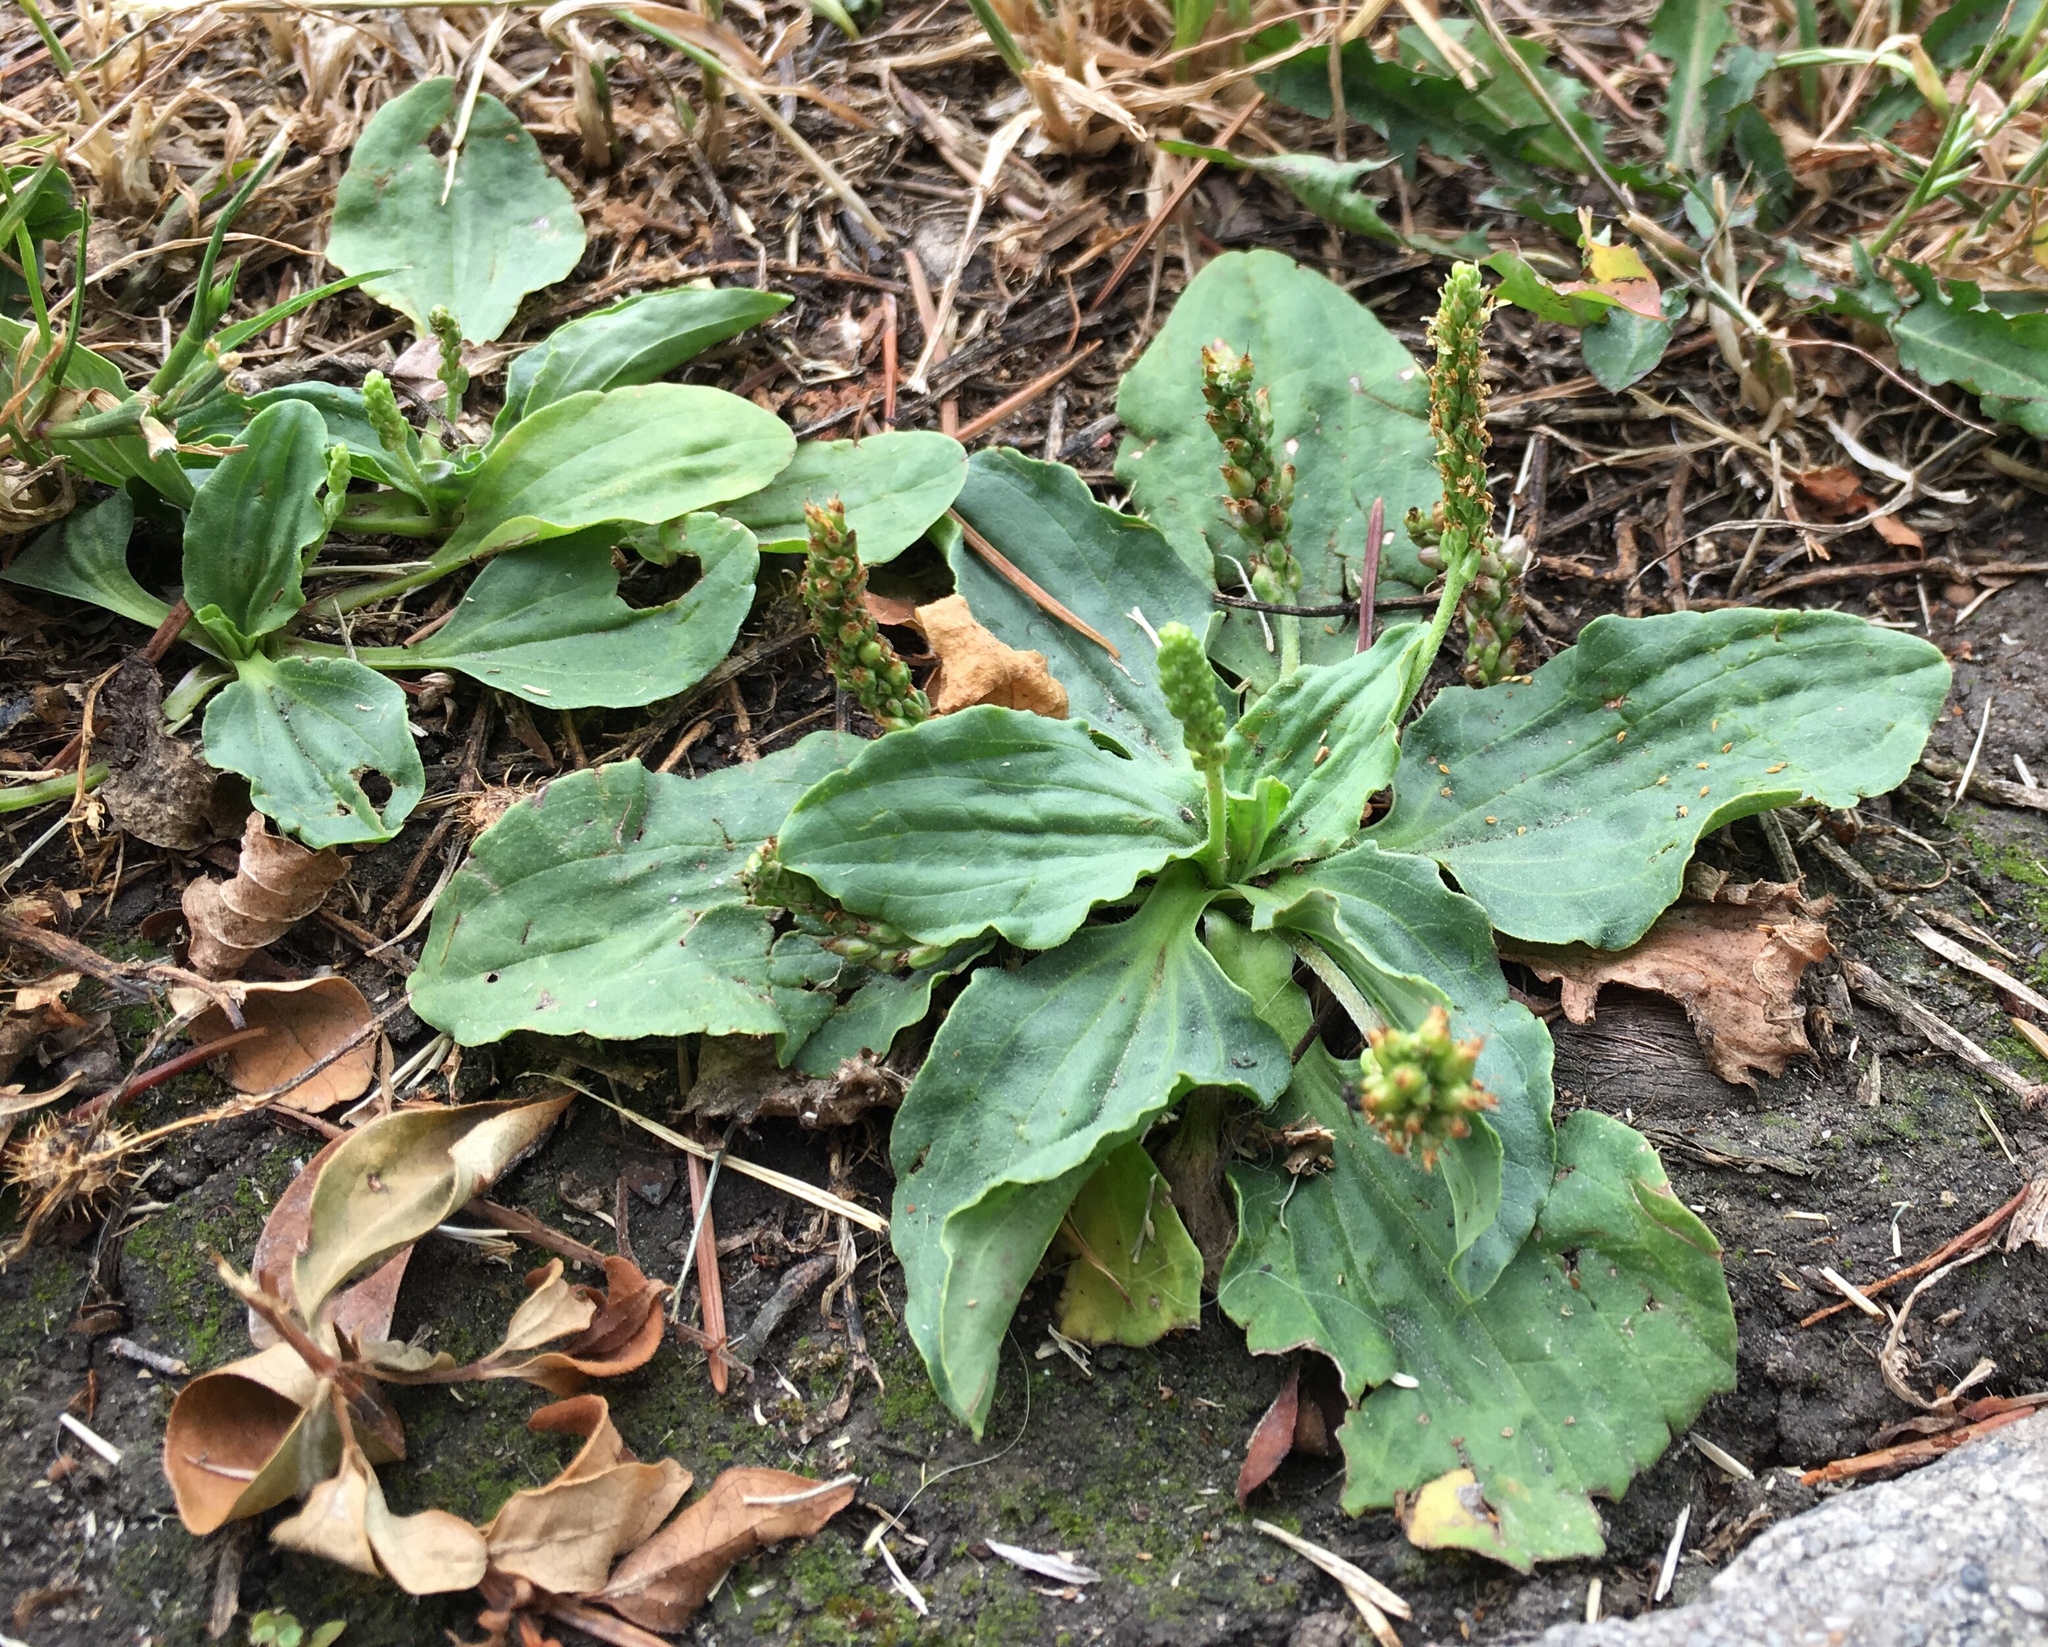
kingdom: Plantae
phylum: Tracheophyta
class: Magnoliopsida
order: Lamiales
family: Plantaginaceae
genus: Plantago
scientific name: Plantago major
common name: Common plantain
